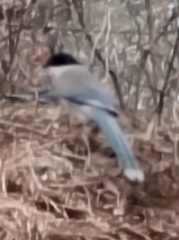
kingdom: Animalia
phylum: Chordata
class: Aves
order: Passeriformes
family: Corvidae
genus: Cyanopica
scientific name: Cyanopica cyanus
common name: Azure-winged magpie
